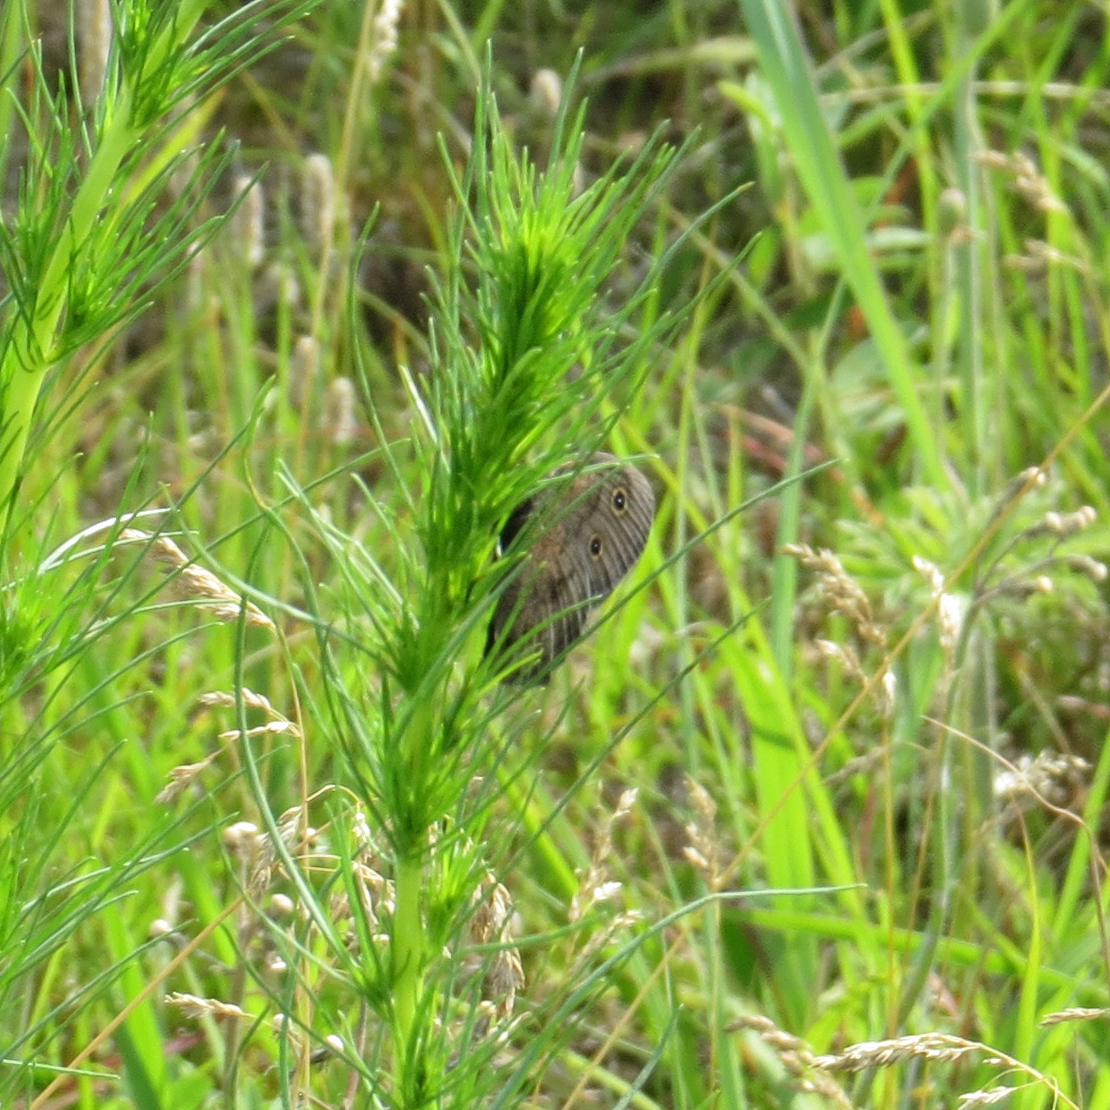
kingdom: Animalia
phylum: Arthropoda
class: Insecta
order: Lepidoptera
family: Nymphalidae
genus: Cercyonis
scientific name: Cercyonis pegala
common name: Common wood-nymph
